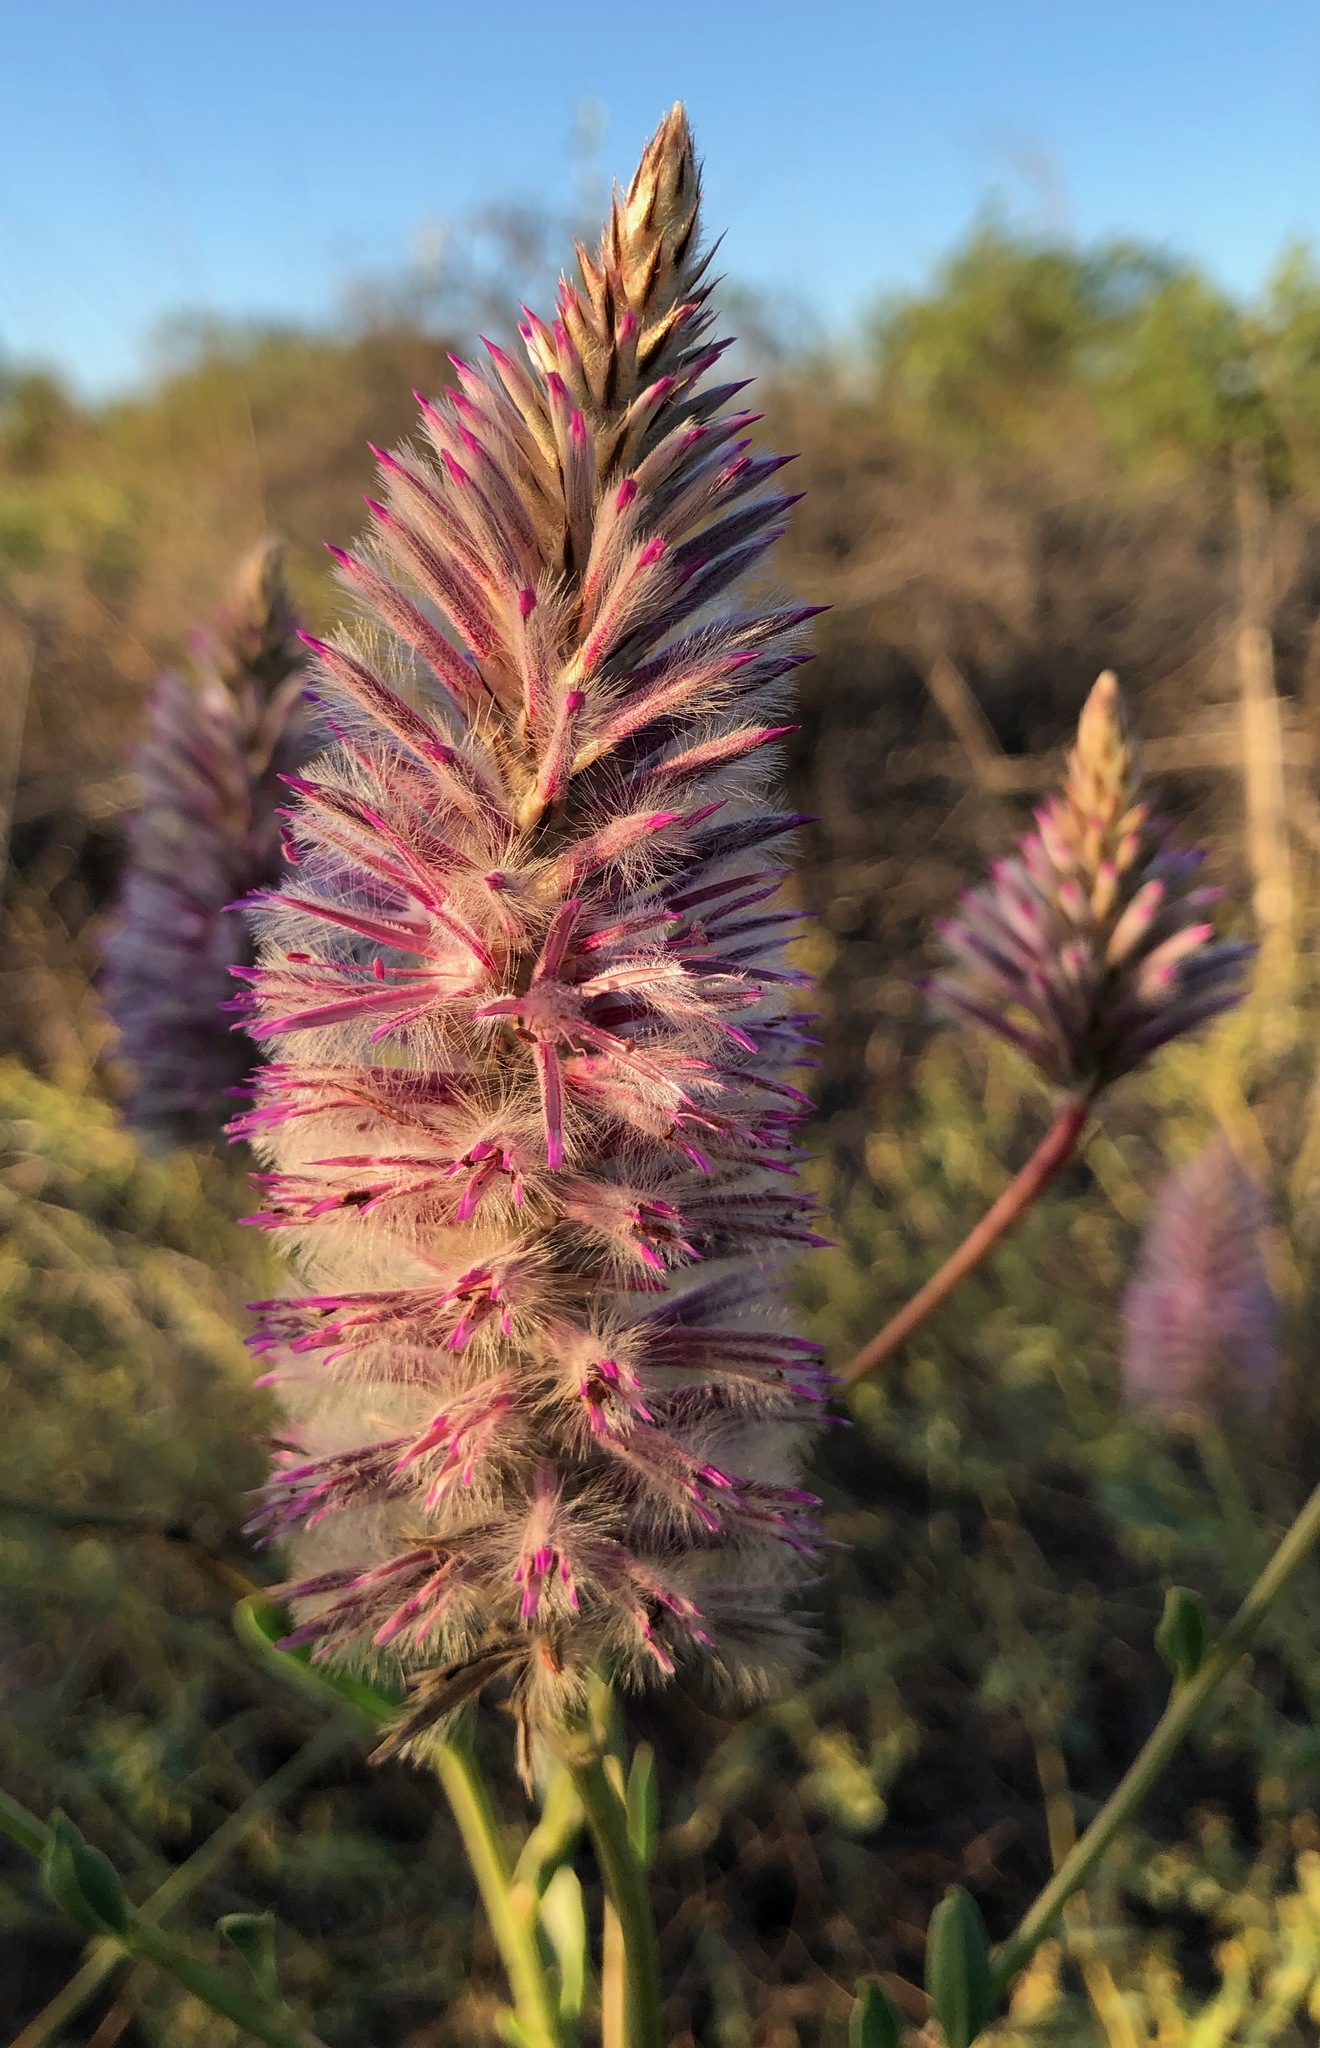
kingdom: Plantae
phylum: Tracheophyta
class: Magnoliopsida
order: Caryophyllales
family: Amaranthaceae
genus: Ptilotus
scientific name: Ptilotus exaltatus
